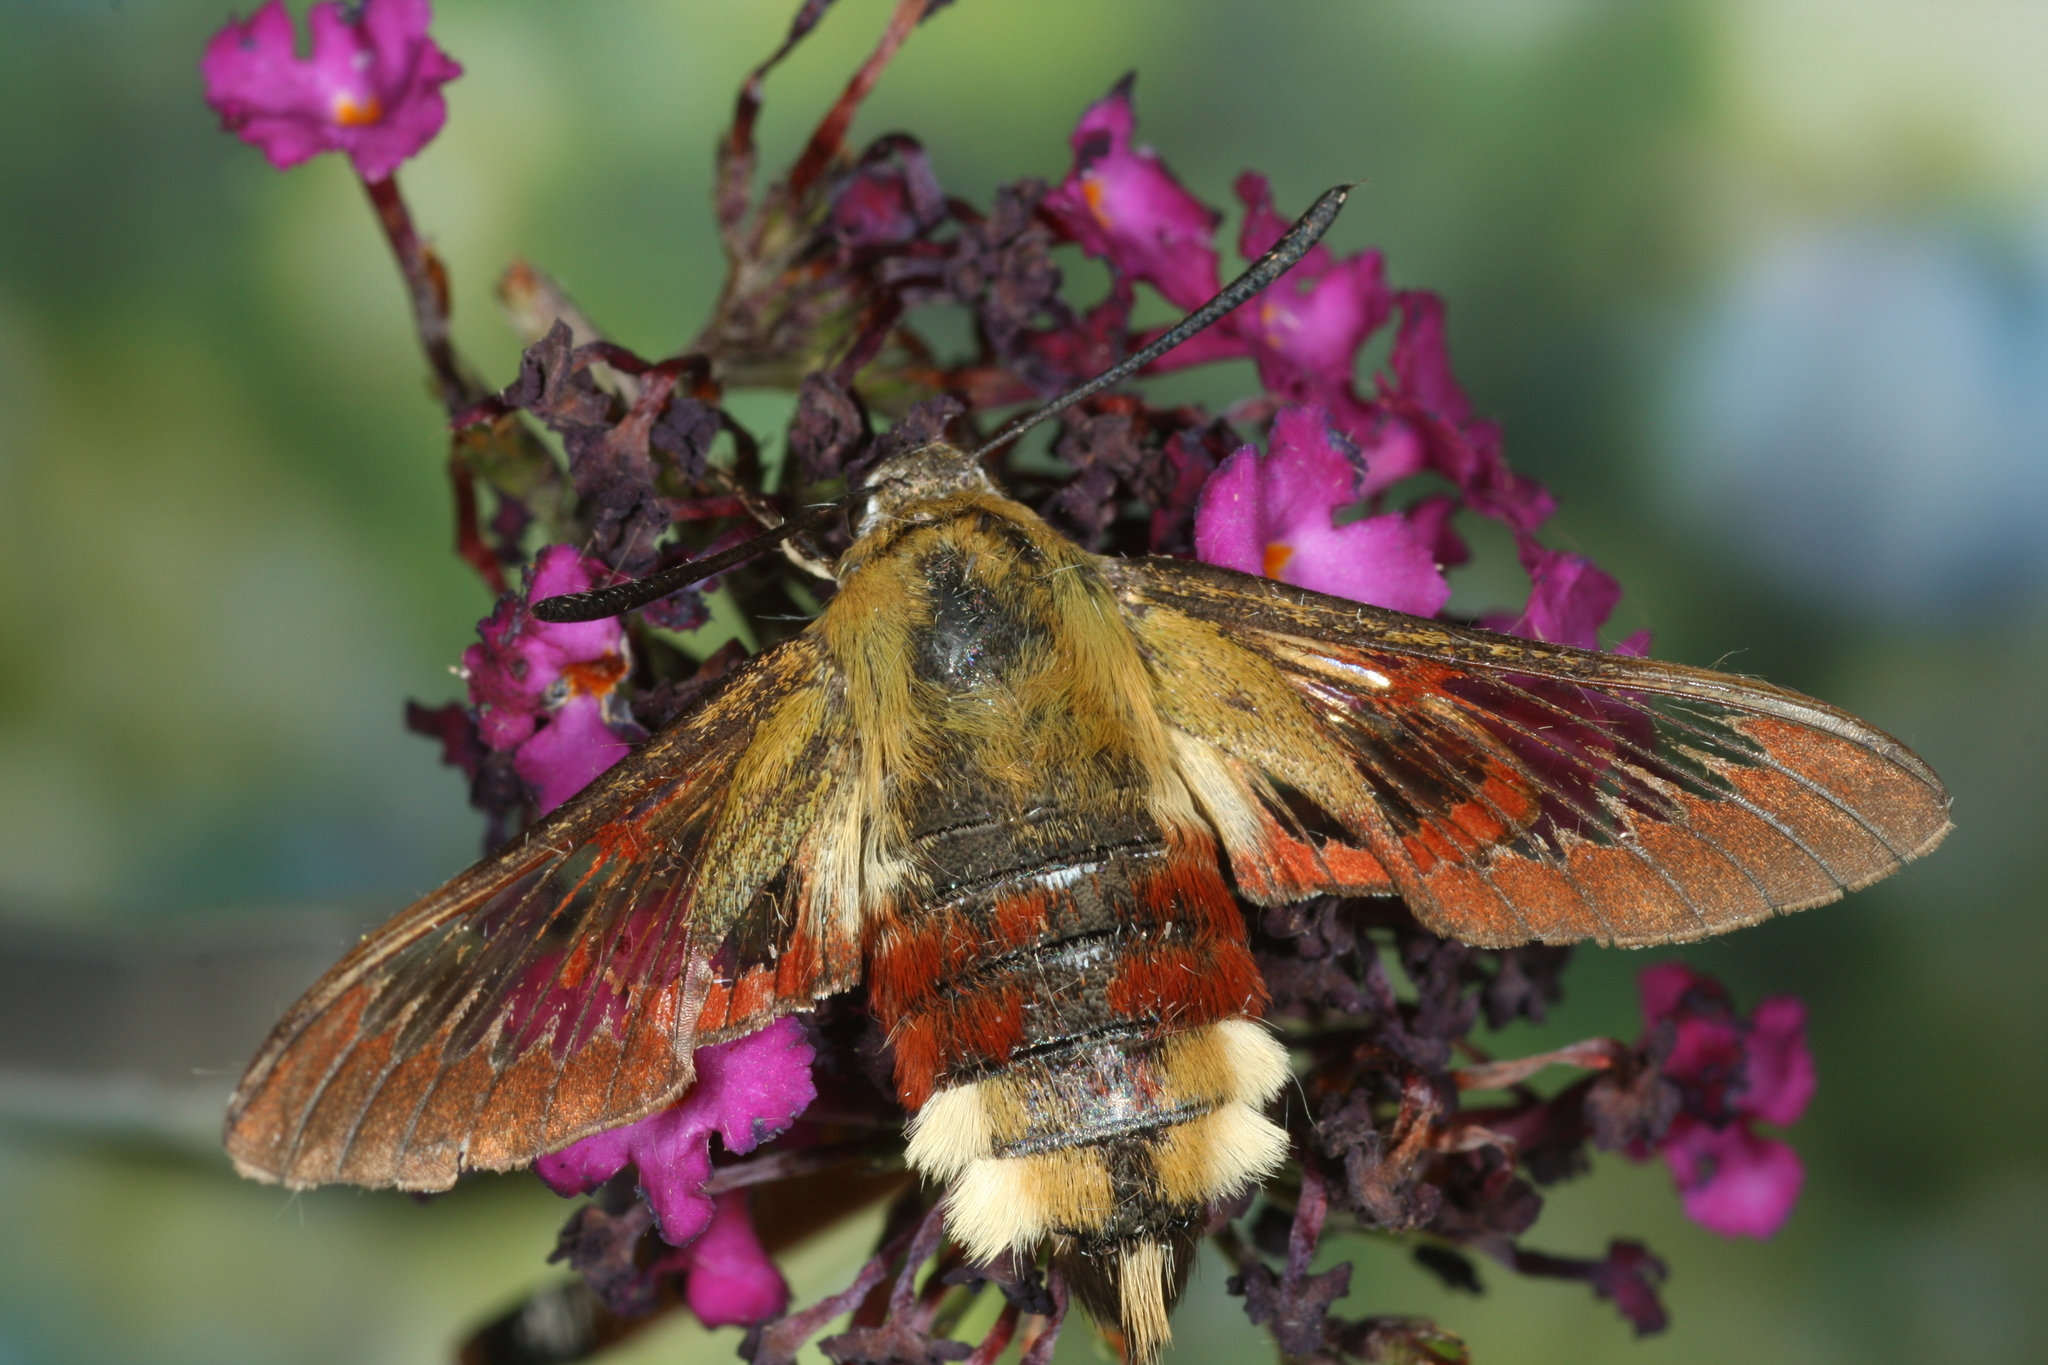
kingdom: Animalia
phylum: Arthropoda
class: Insecta
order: Lepidoptera
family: Sphingidae
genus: Hemaris
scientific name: Hemaris fuciformis
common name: Broad-bordered bee hawk-moth
